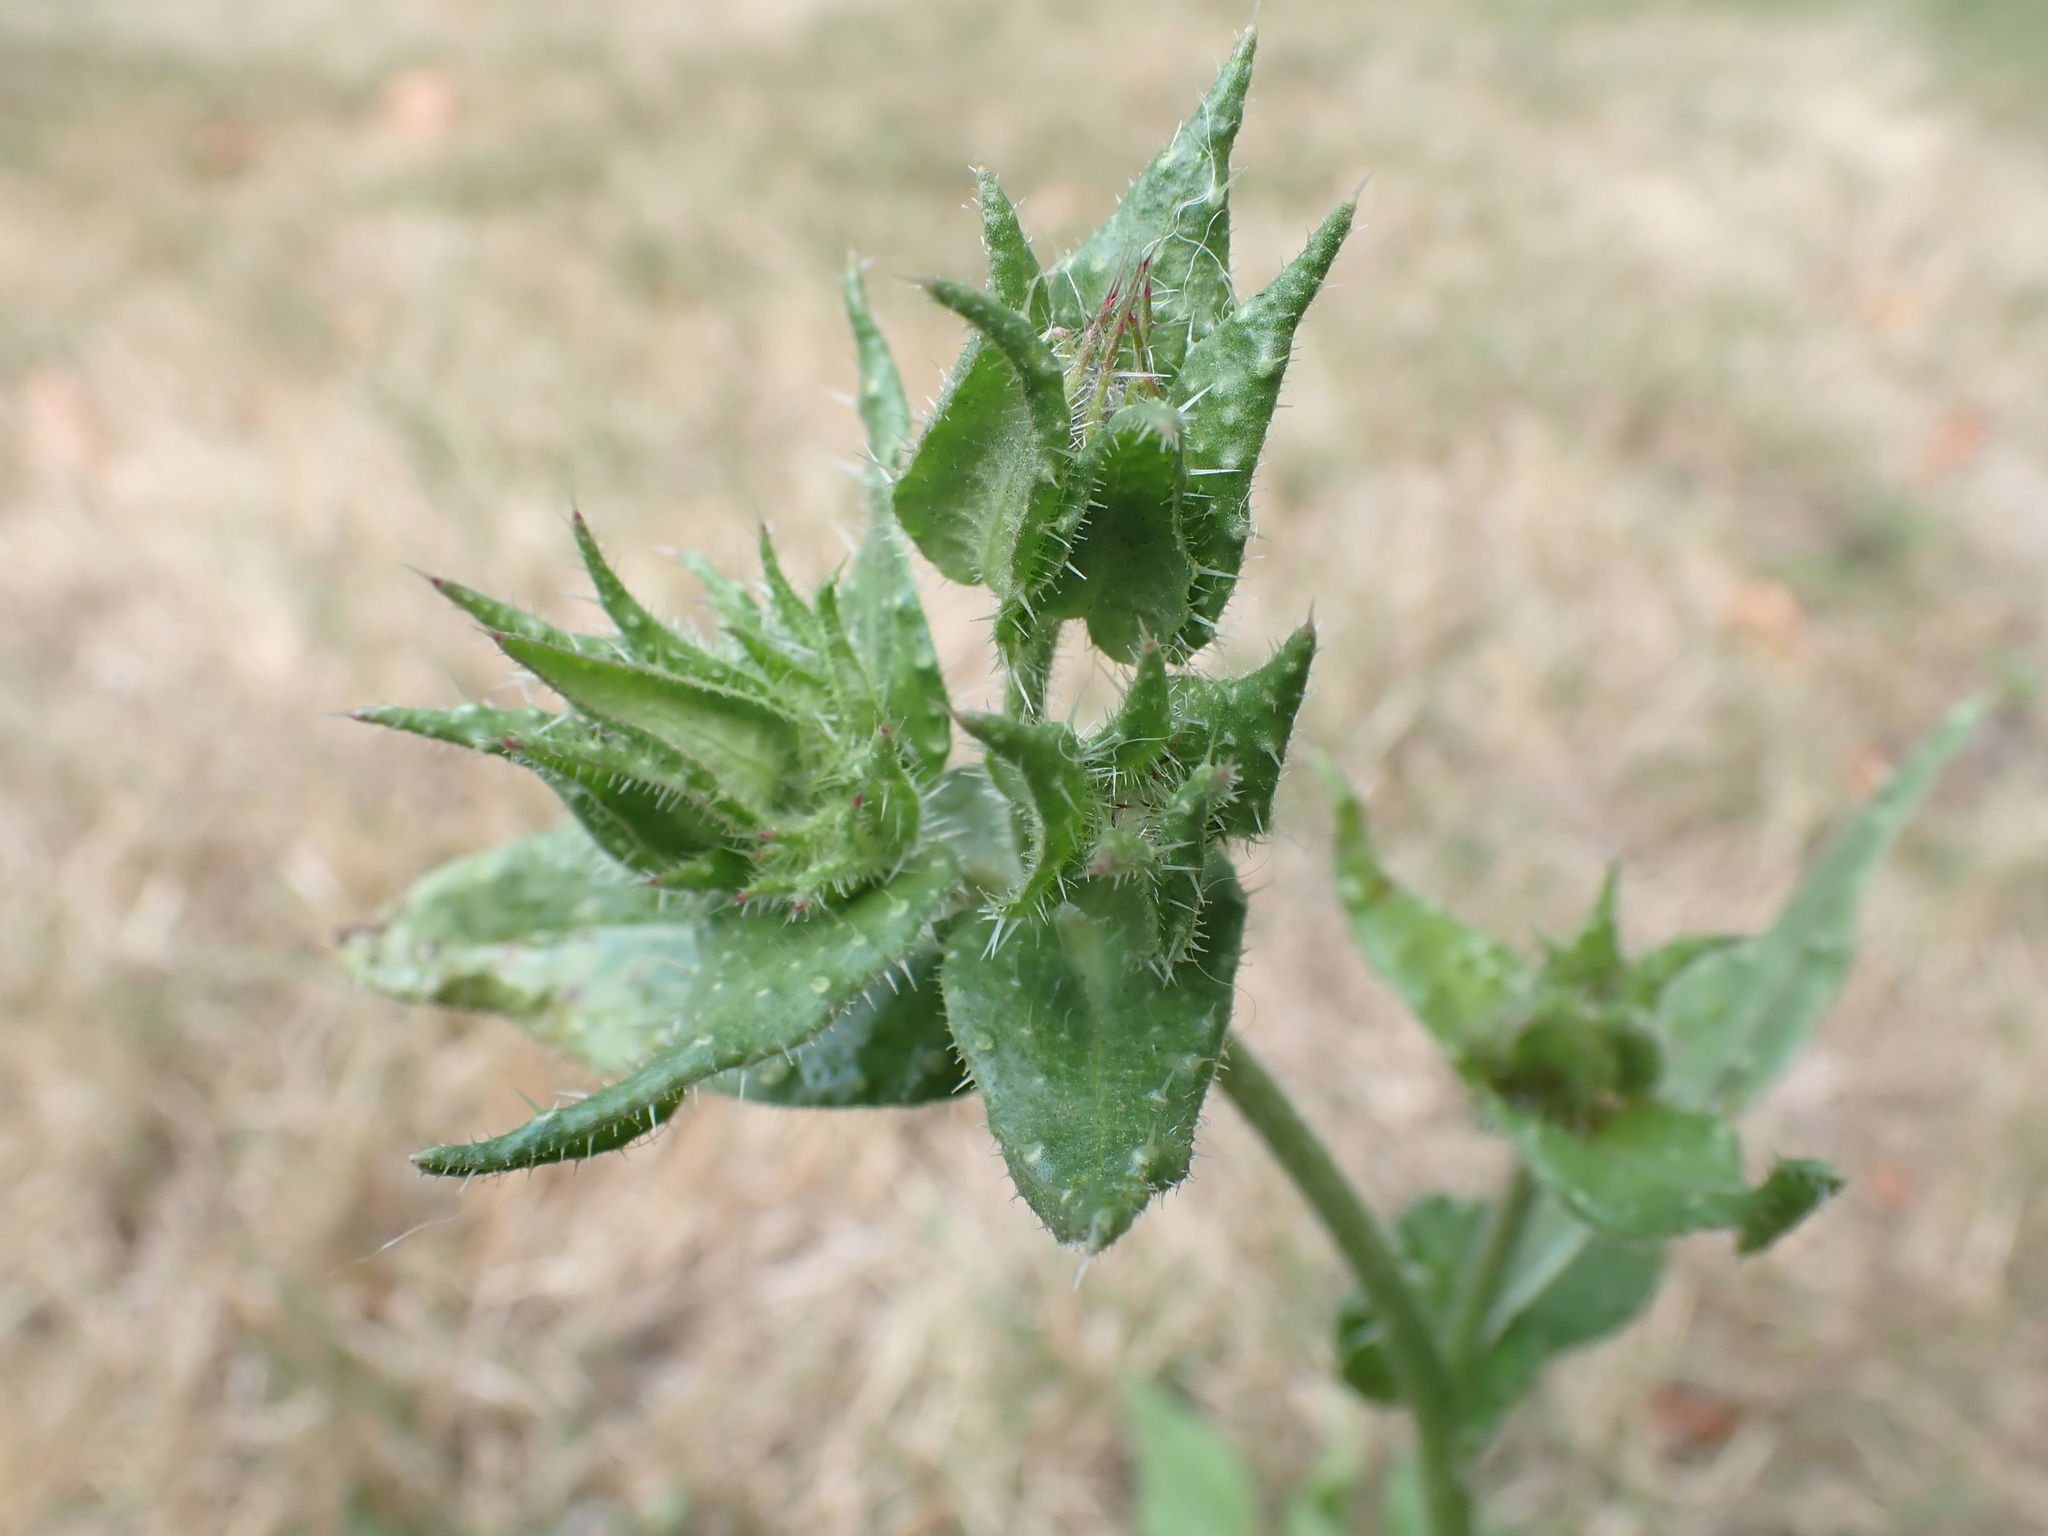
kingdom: Plantae
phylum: Tracheophyta
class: Magnoliopsida
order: Asterales
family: Asteraceae
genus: Helminthotheca
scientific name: Helminthotheca echioides
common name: Ox-tongue
